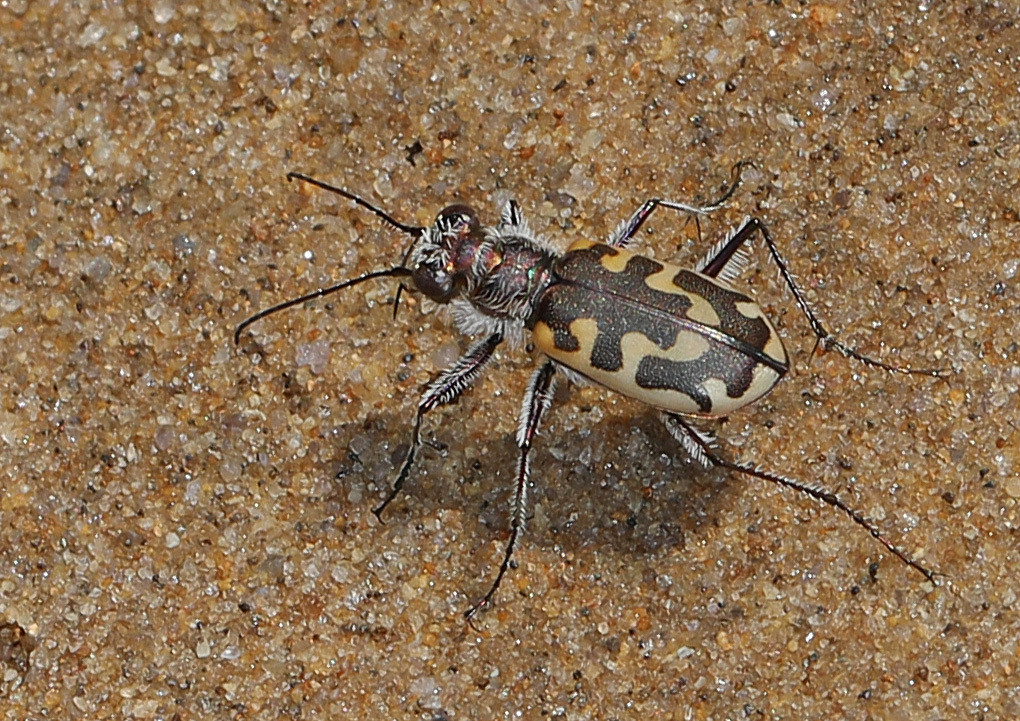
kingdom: Animalia
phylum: Arthropoda
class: Insecta
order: Coleoptera
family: Carabidae
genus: Cicindela
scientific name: Cicindela hirticollis
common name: Hairy-necked tiger beetle
